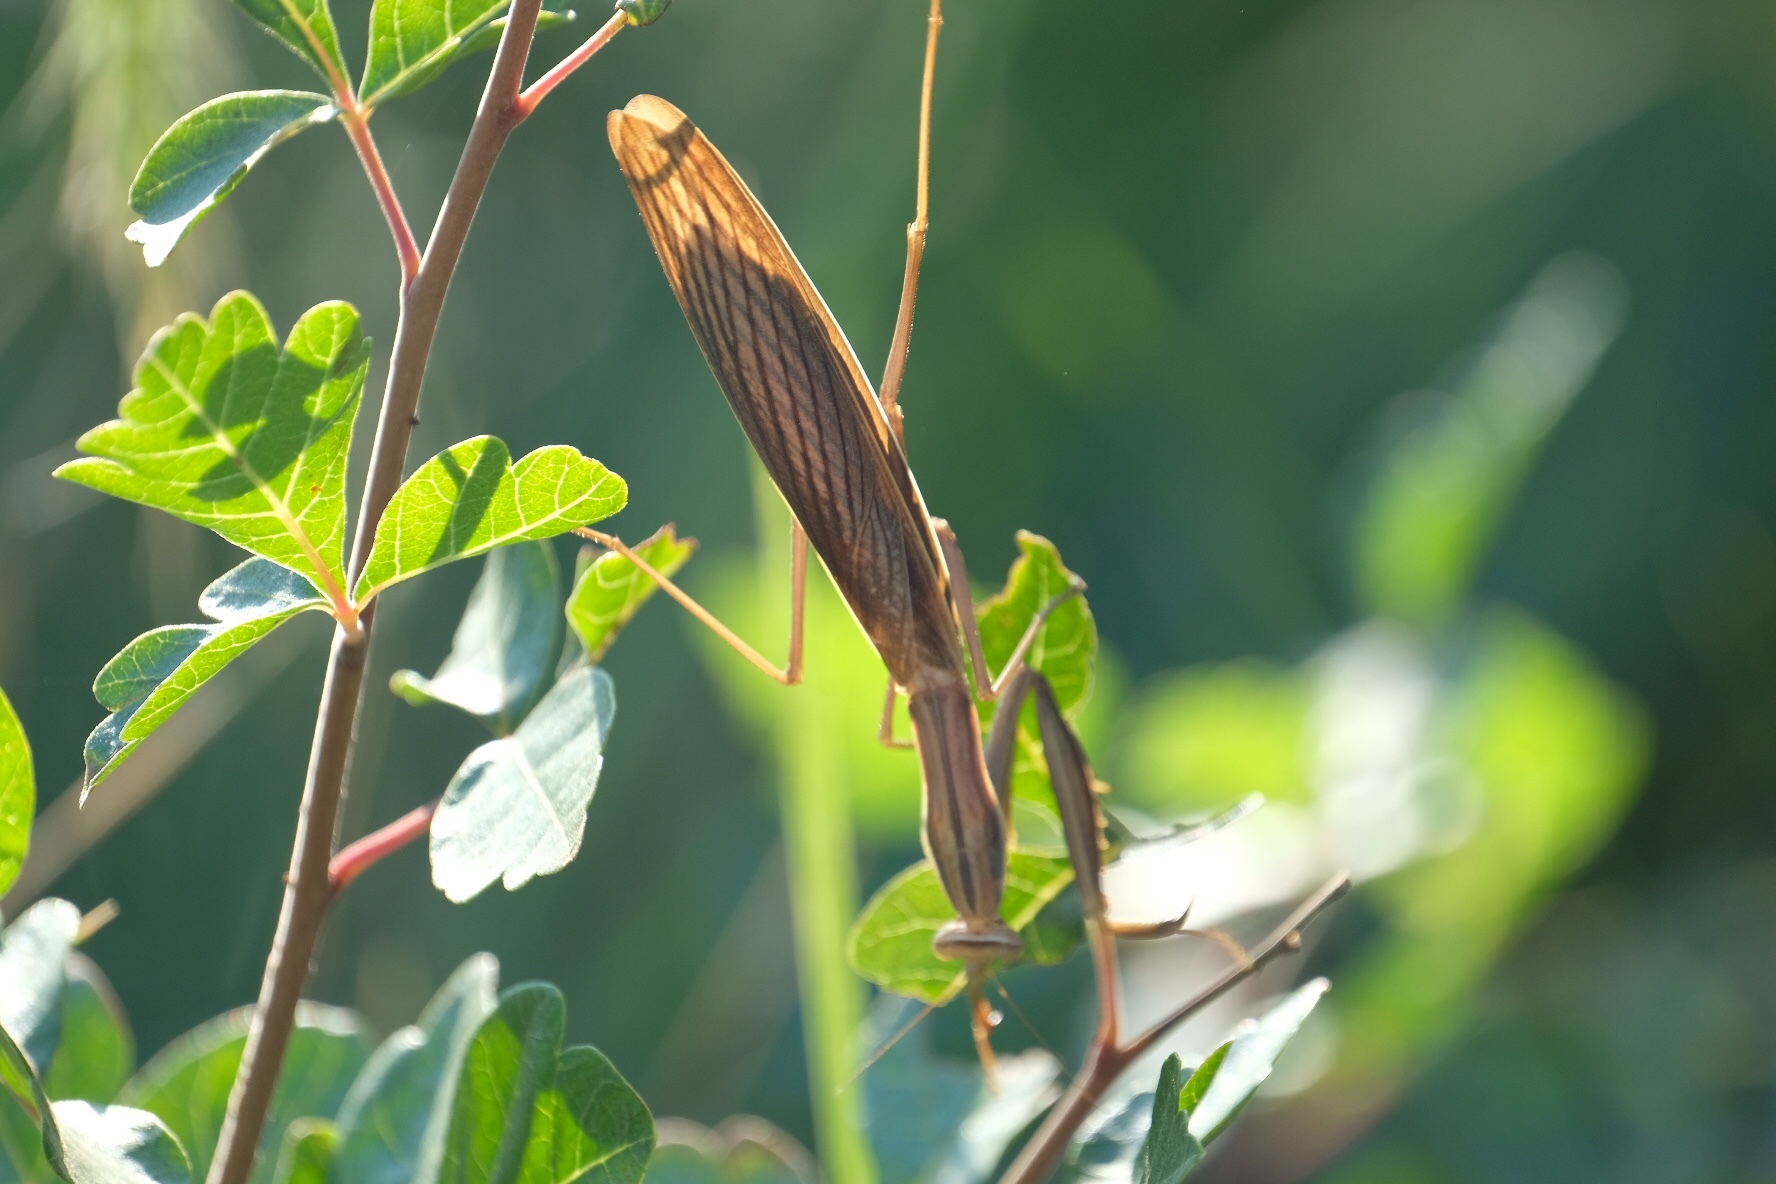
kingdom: Animalia
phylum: Arthropoda
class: Insecta
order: Mantodea
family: Mantidae
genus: Mantis
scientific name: Mantis religiosa
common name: Praying mantis
